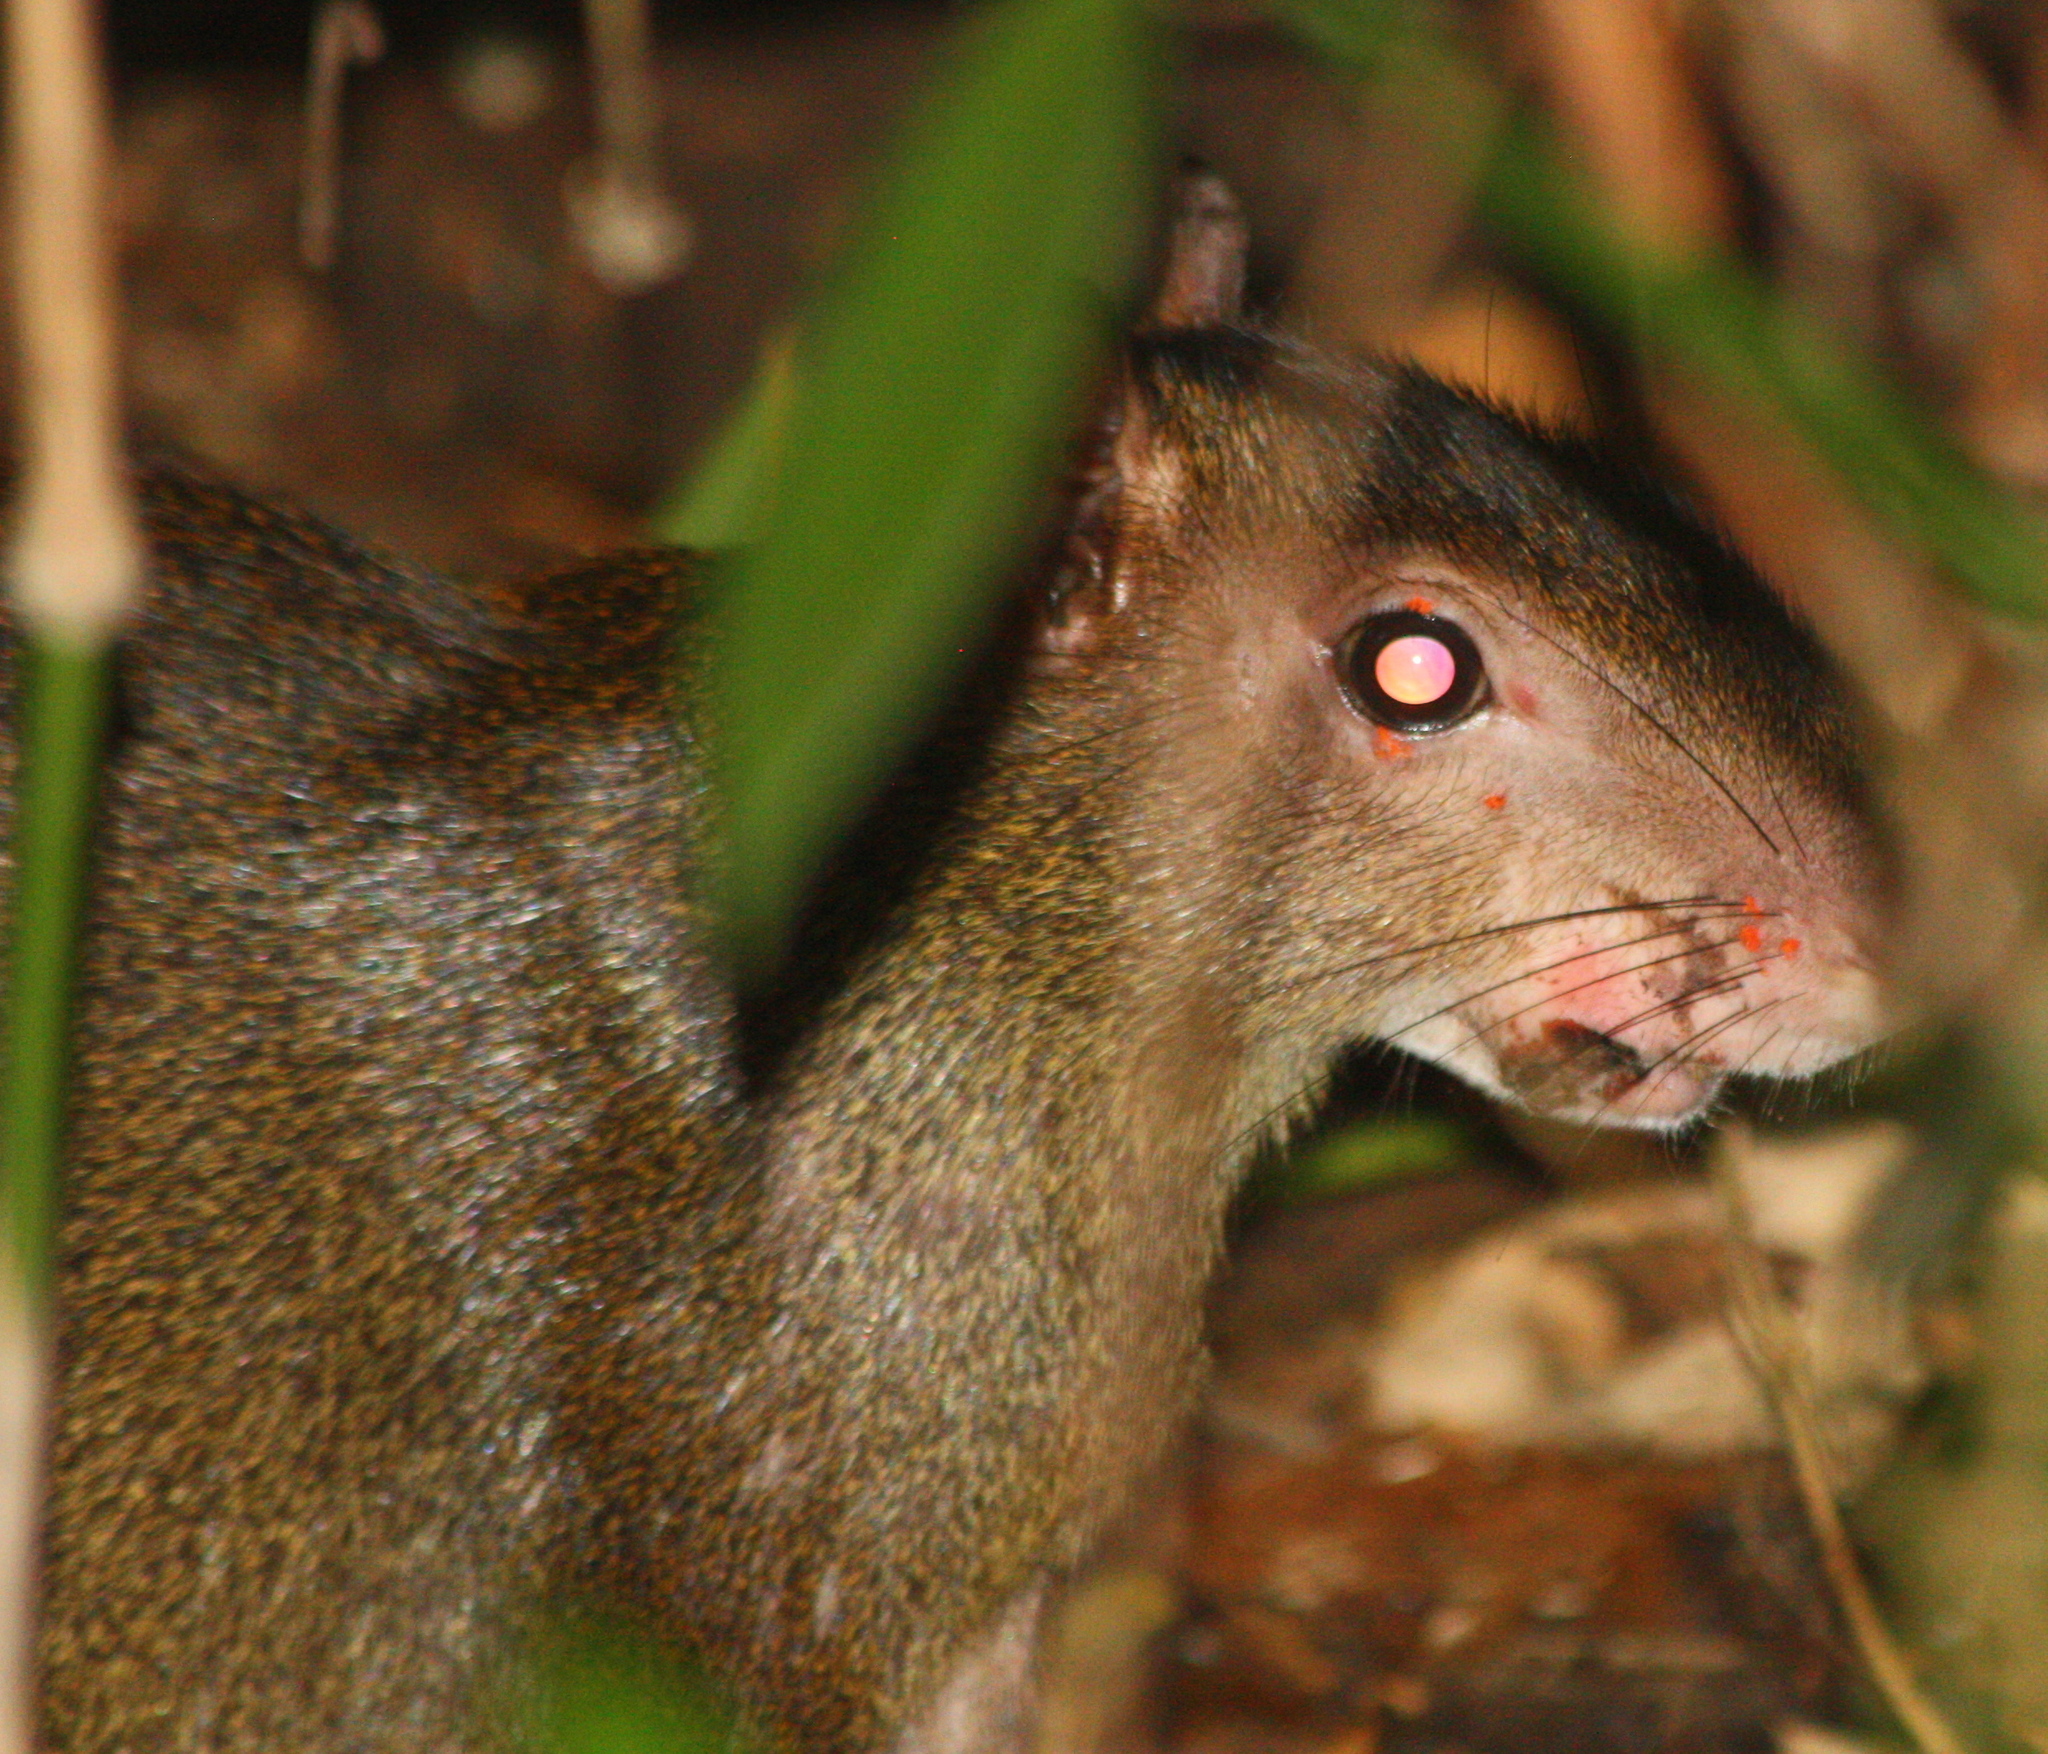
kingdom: Animalia
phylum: Chordata
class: Mammalia
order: Rodentia
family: Dasyproctidae
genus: Dasyprocta
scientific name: Dasyprocta punctata
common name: Central american agouti
